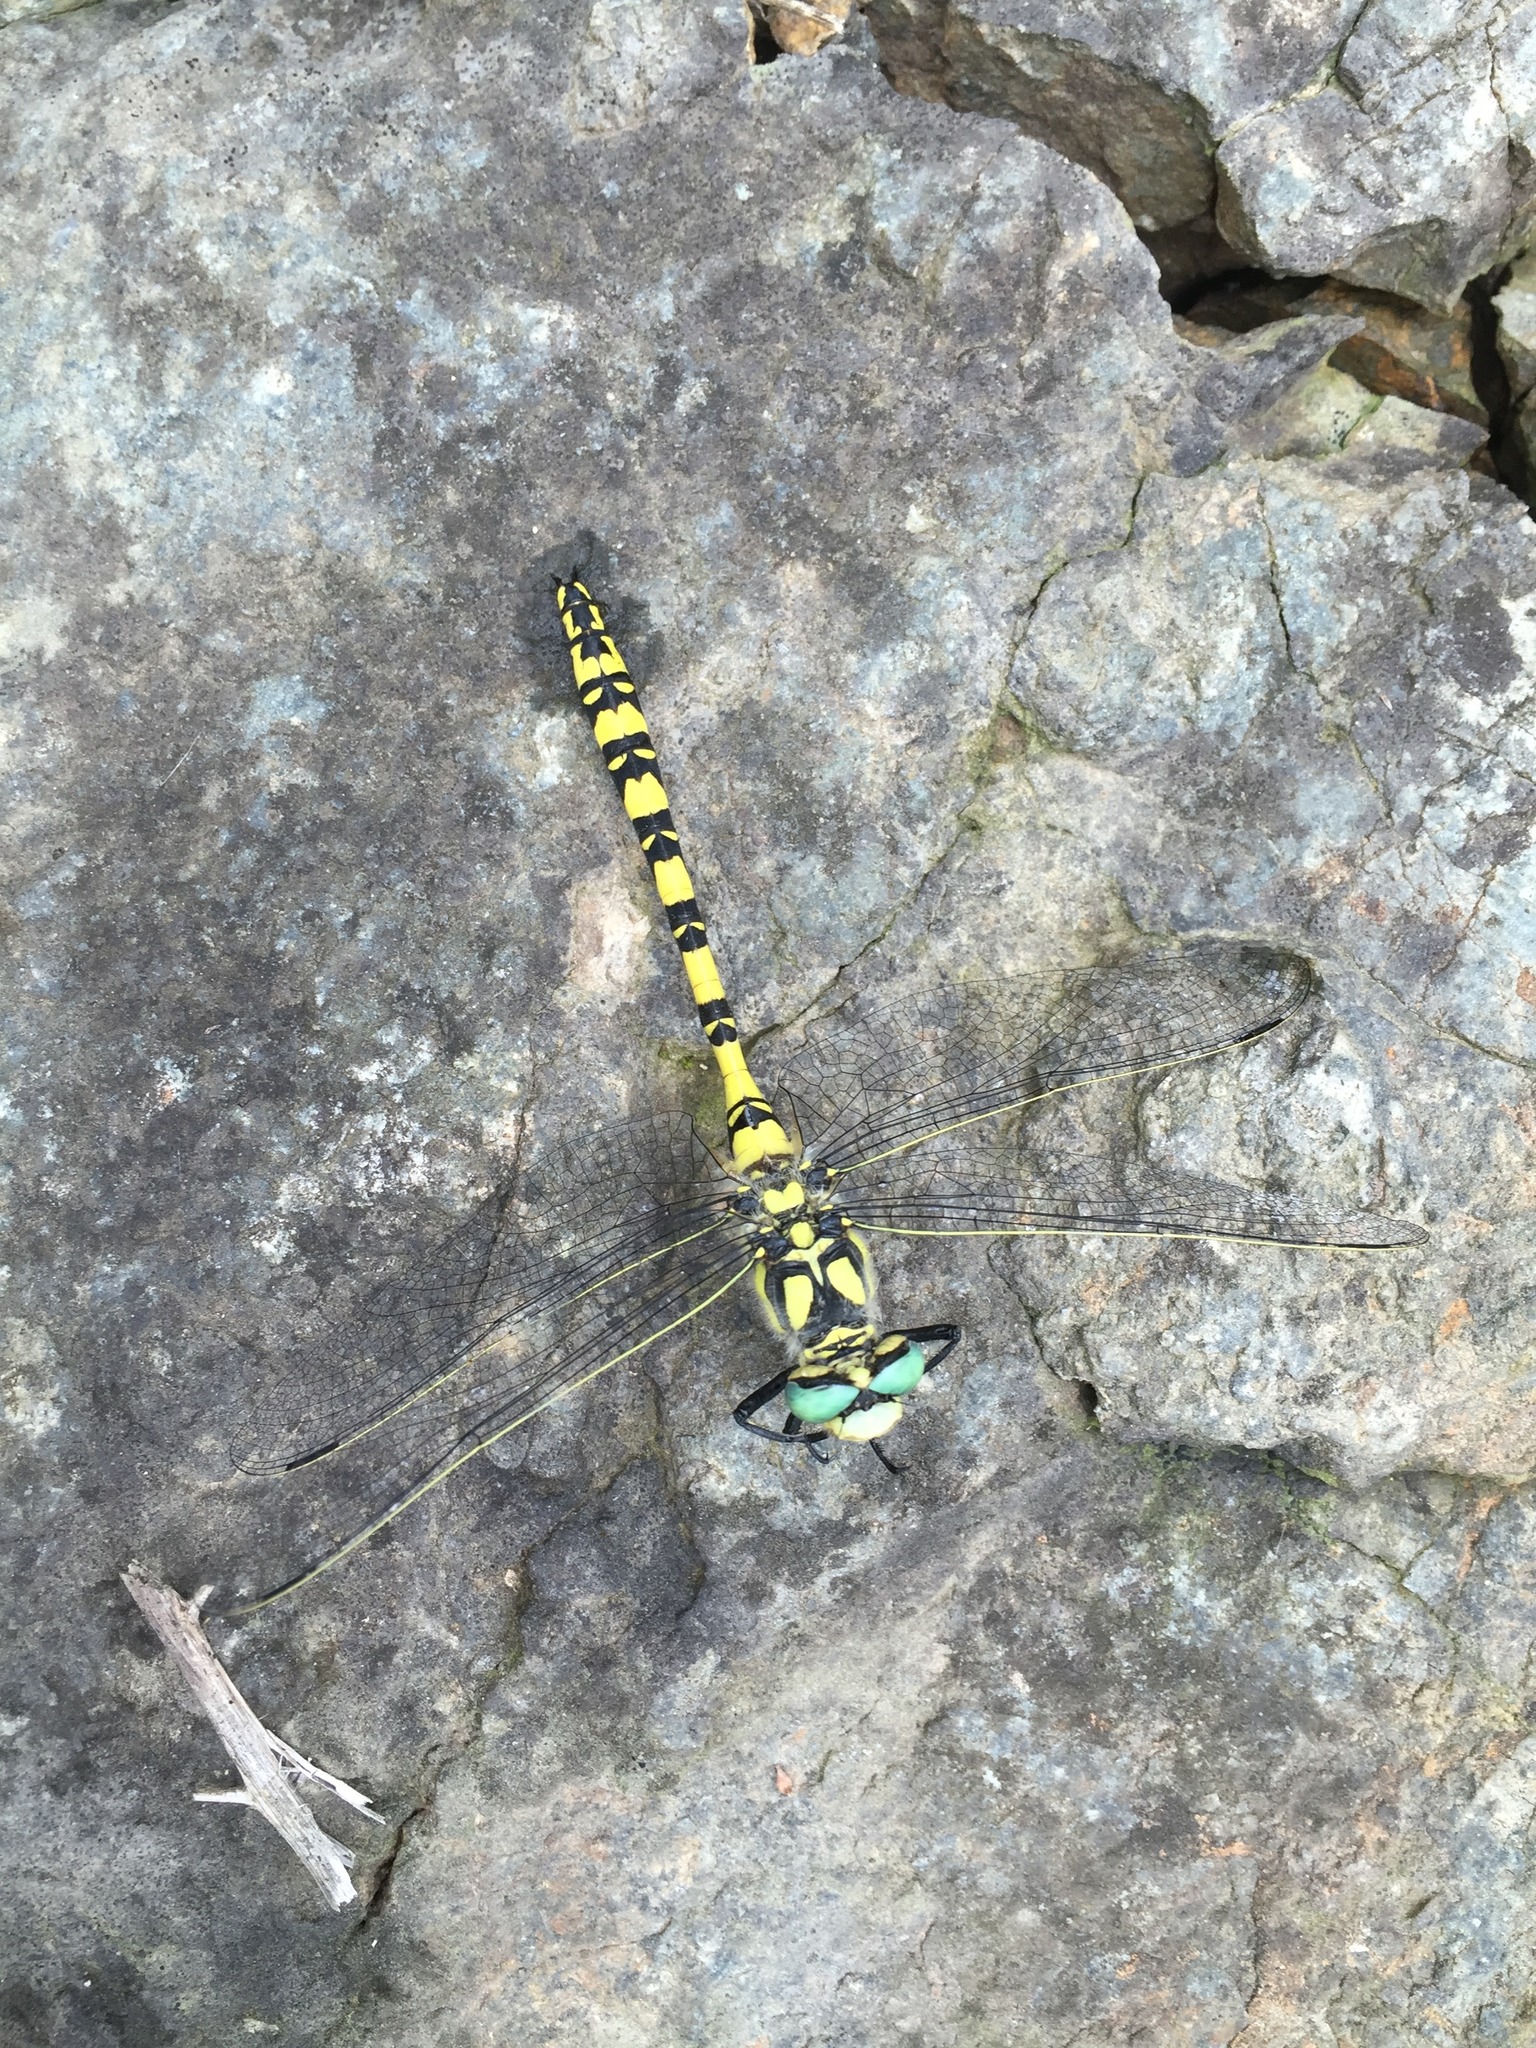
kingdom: Animalia
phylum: Arthropoda
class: Insecta
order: Odonata
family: Cordulegastridae
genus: Cordulegaster
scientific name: Cordulegaster charpentieri
